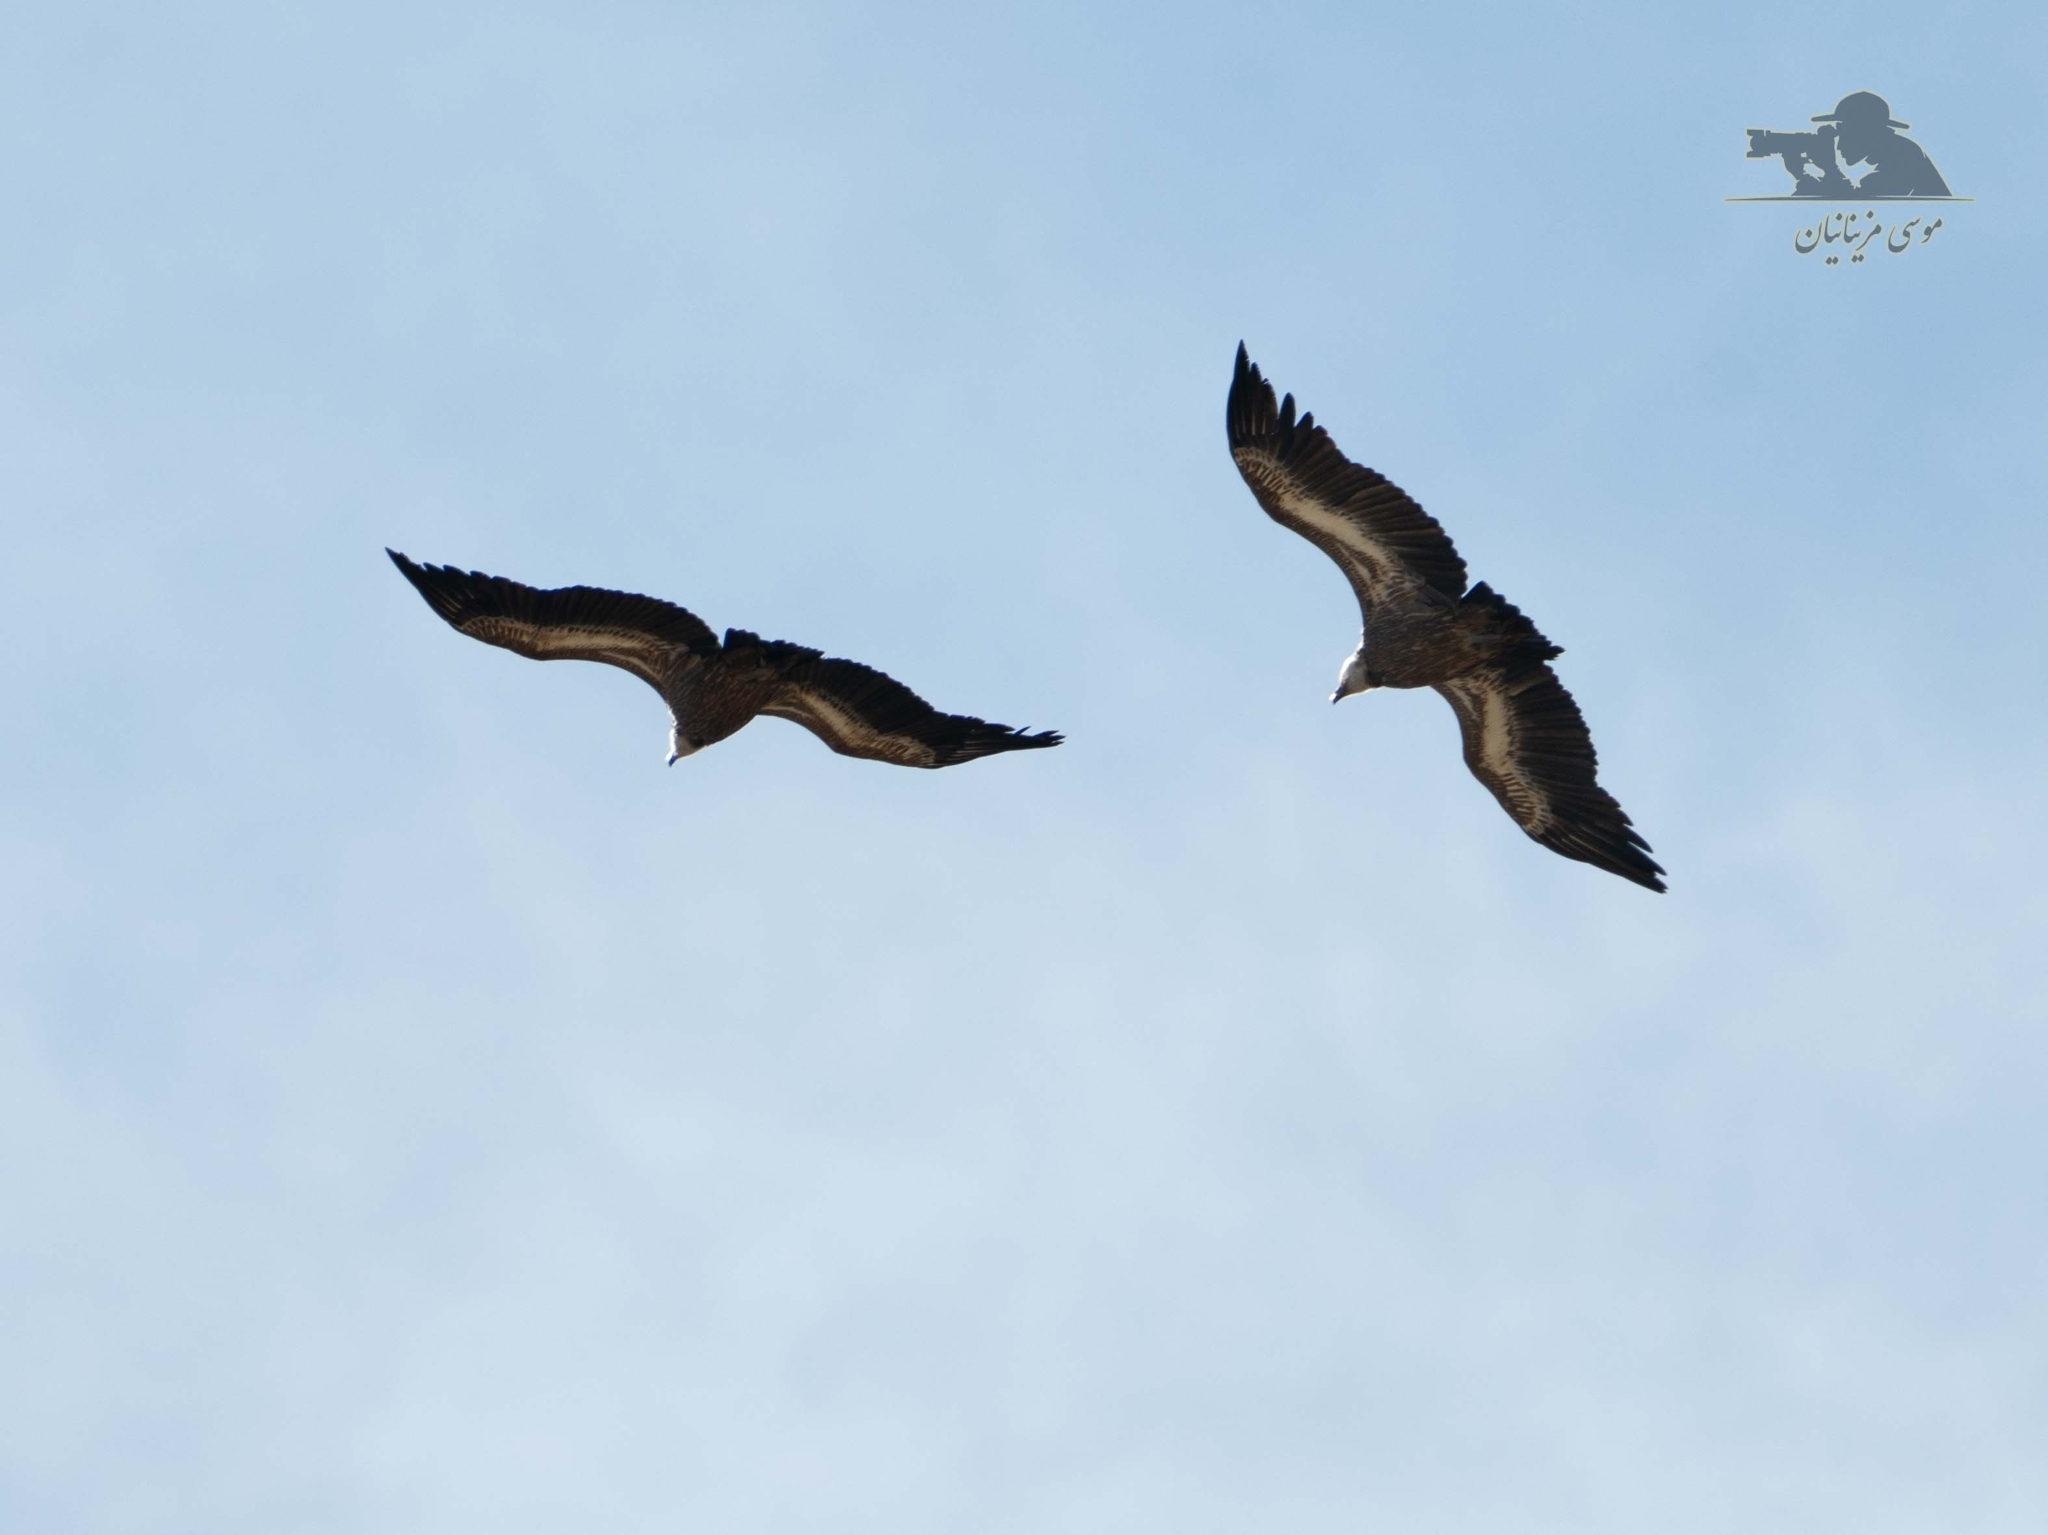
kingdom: Animalia
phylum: Chordata
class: Aves
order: Accipitriformes
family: Accipitridae
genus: Gyps
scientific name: Gyps fulvus
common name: Griffon vulture
